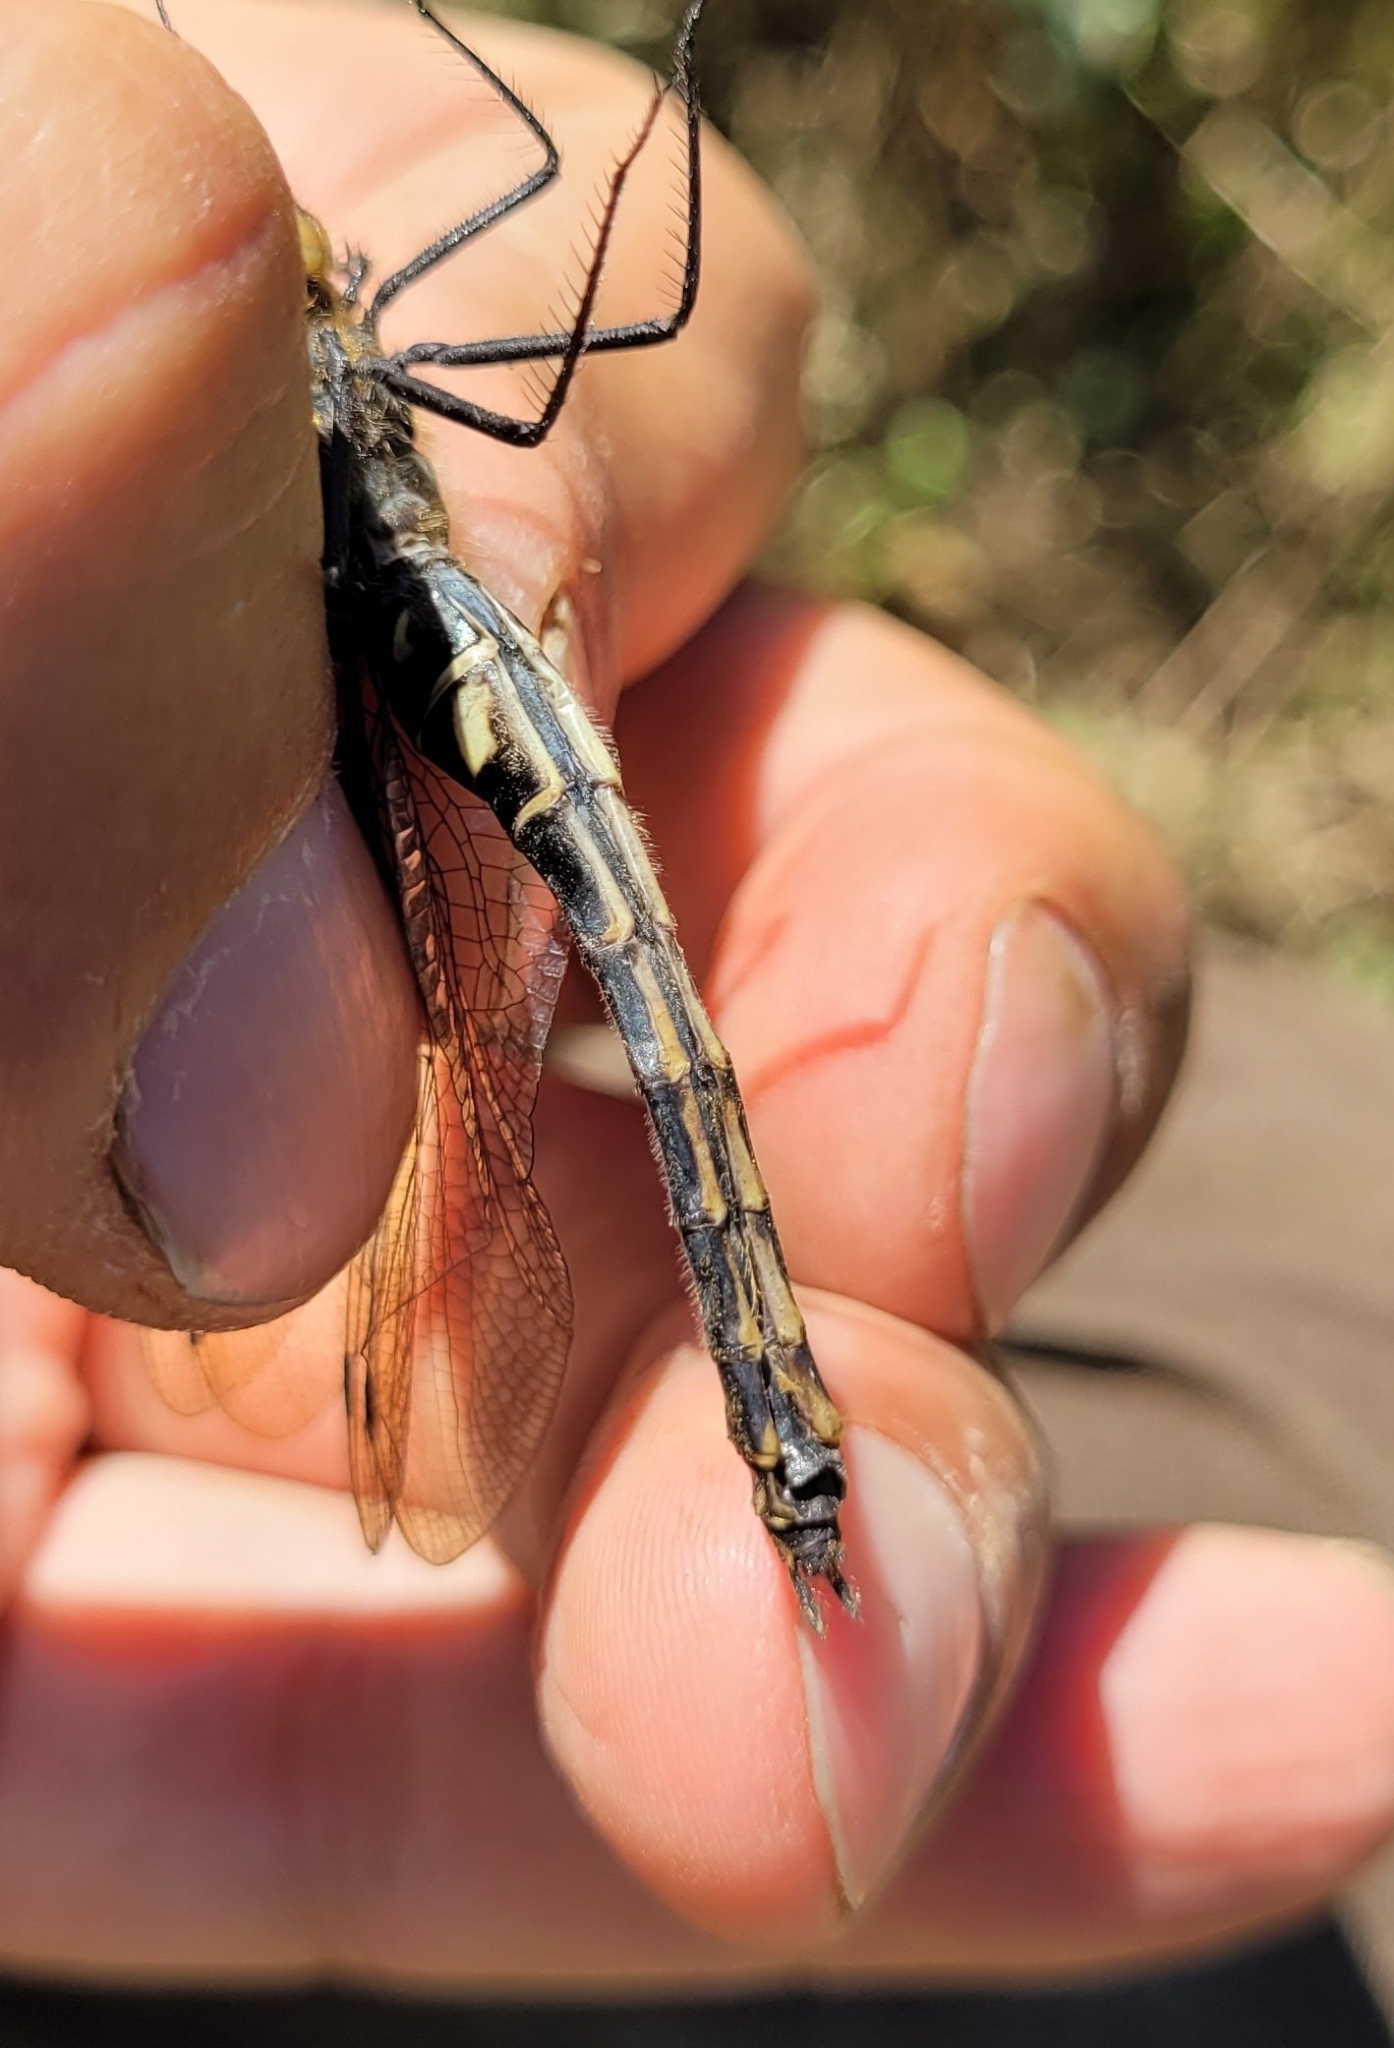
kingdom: Animalia
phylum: Arthropoda
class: Insecta
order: Odonata
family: Corduliidae
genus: Somatochlora
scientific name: Somatochlora uchidai
